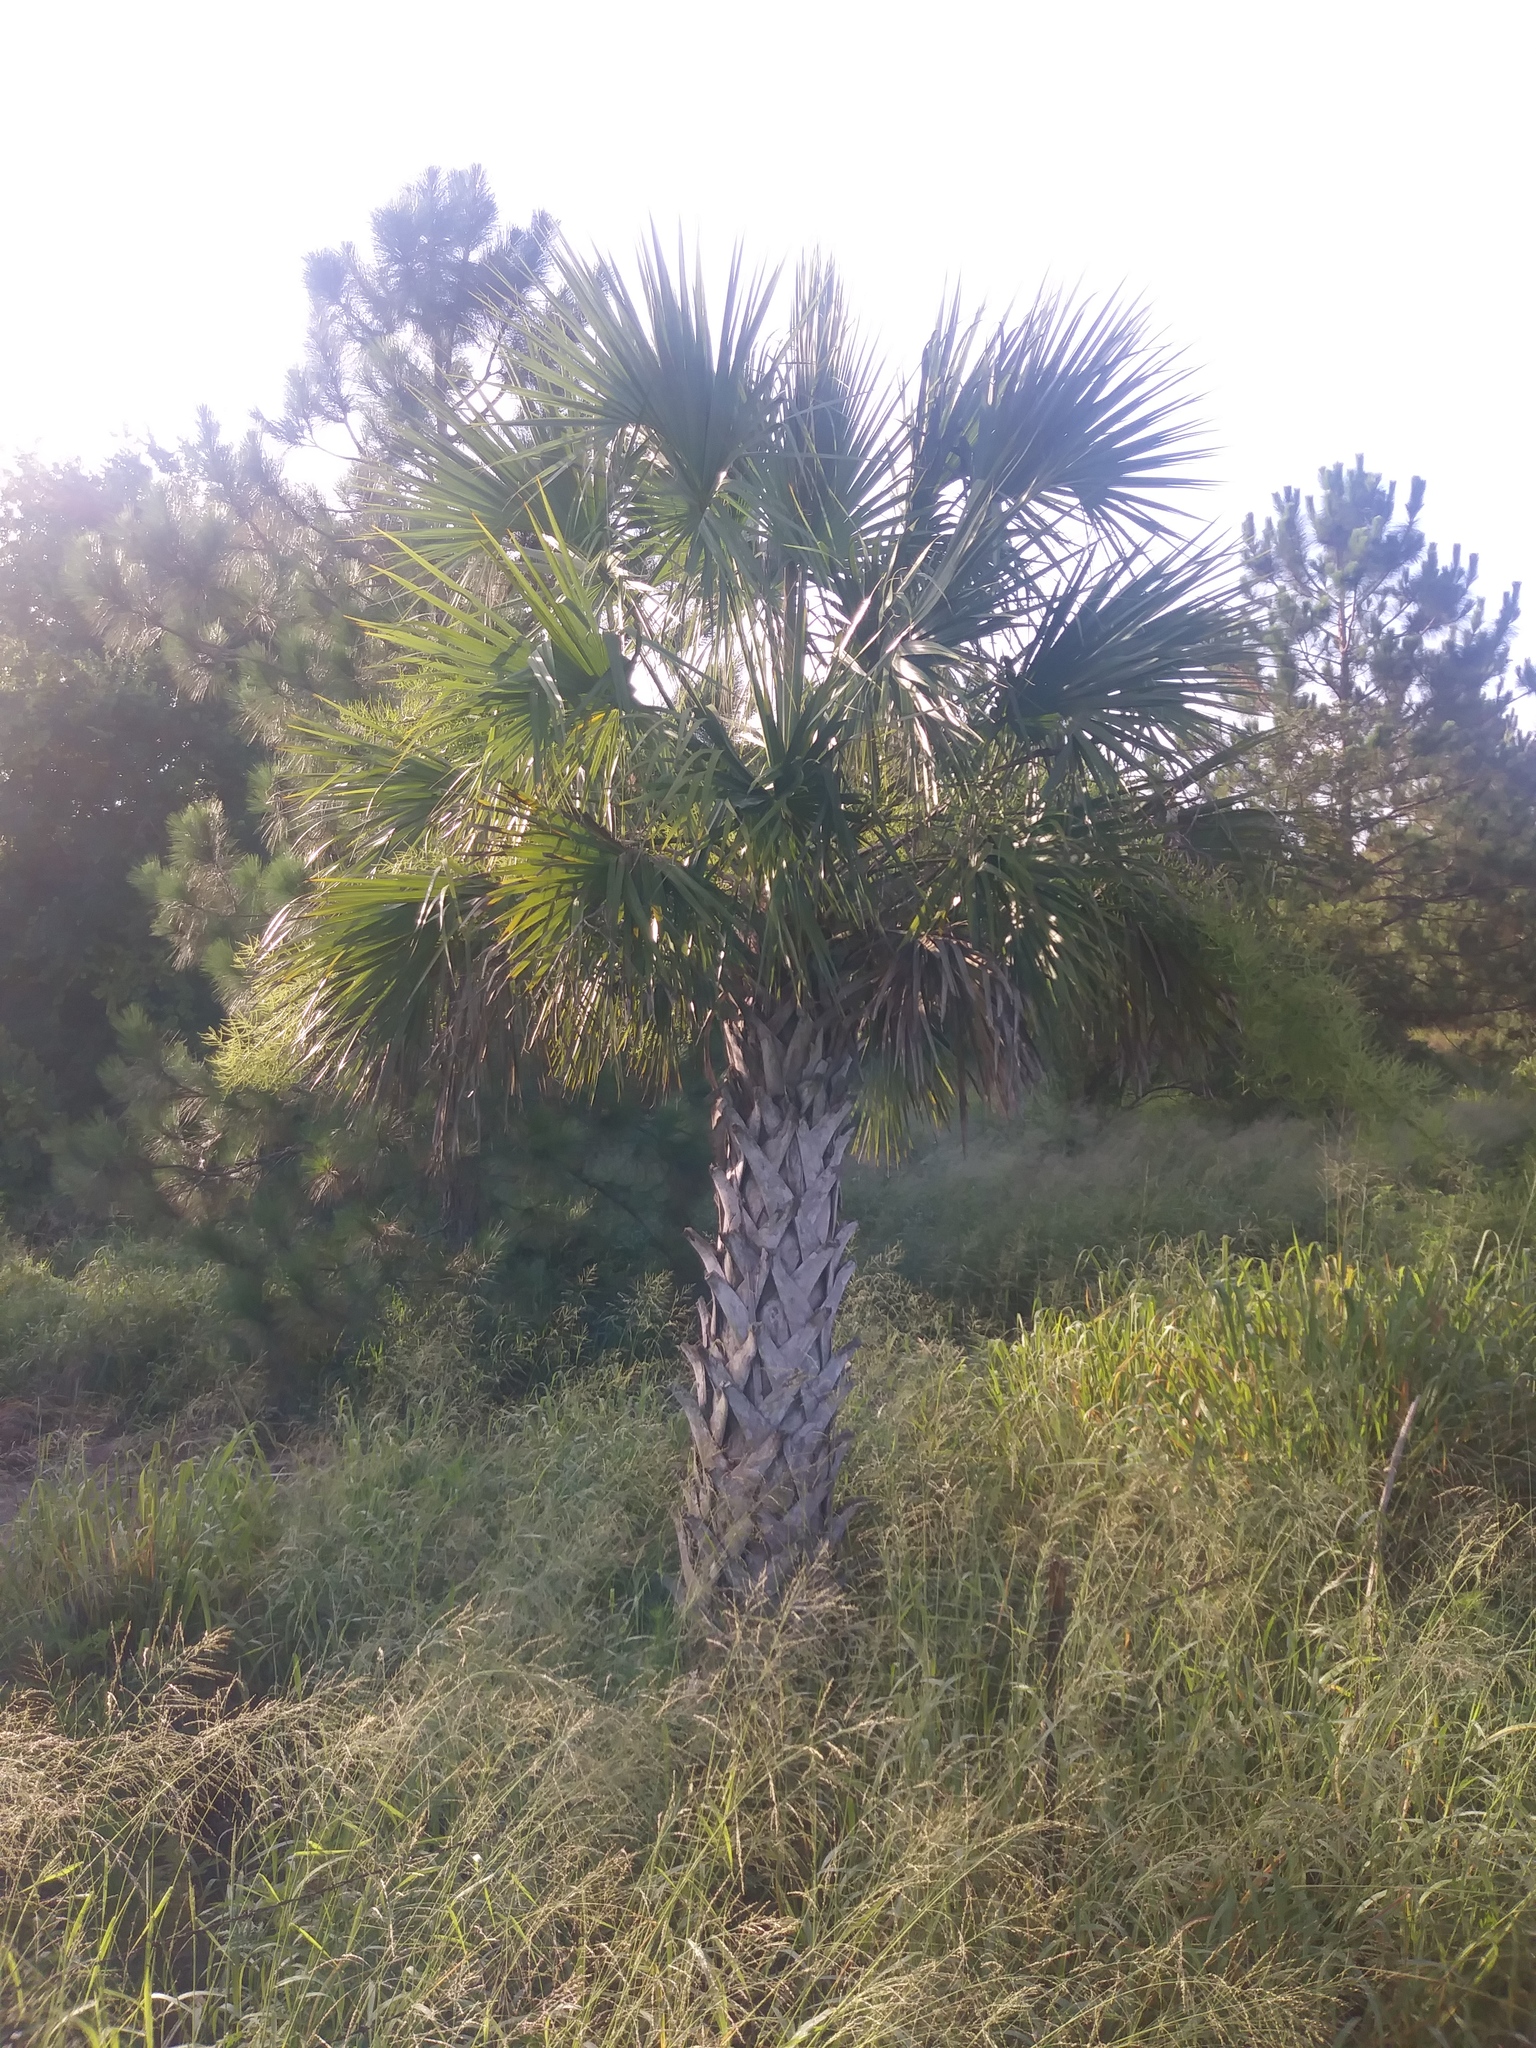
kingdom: Plantae
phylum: Tracheophyta
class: Liliopsida
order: Arecales
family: Arecaceae
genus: Sabal
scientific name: Sabal palmetto
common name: Blue palmetto
